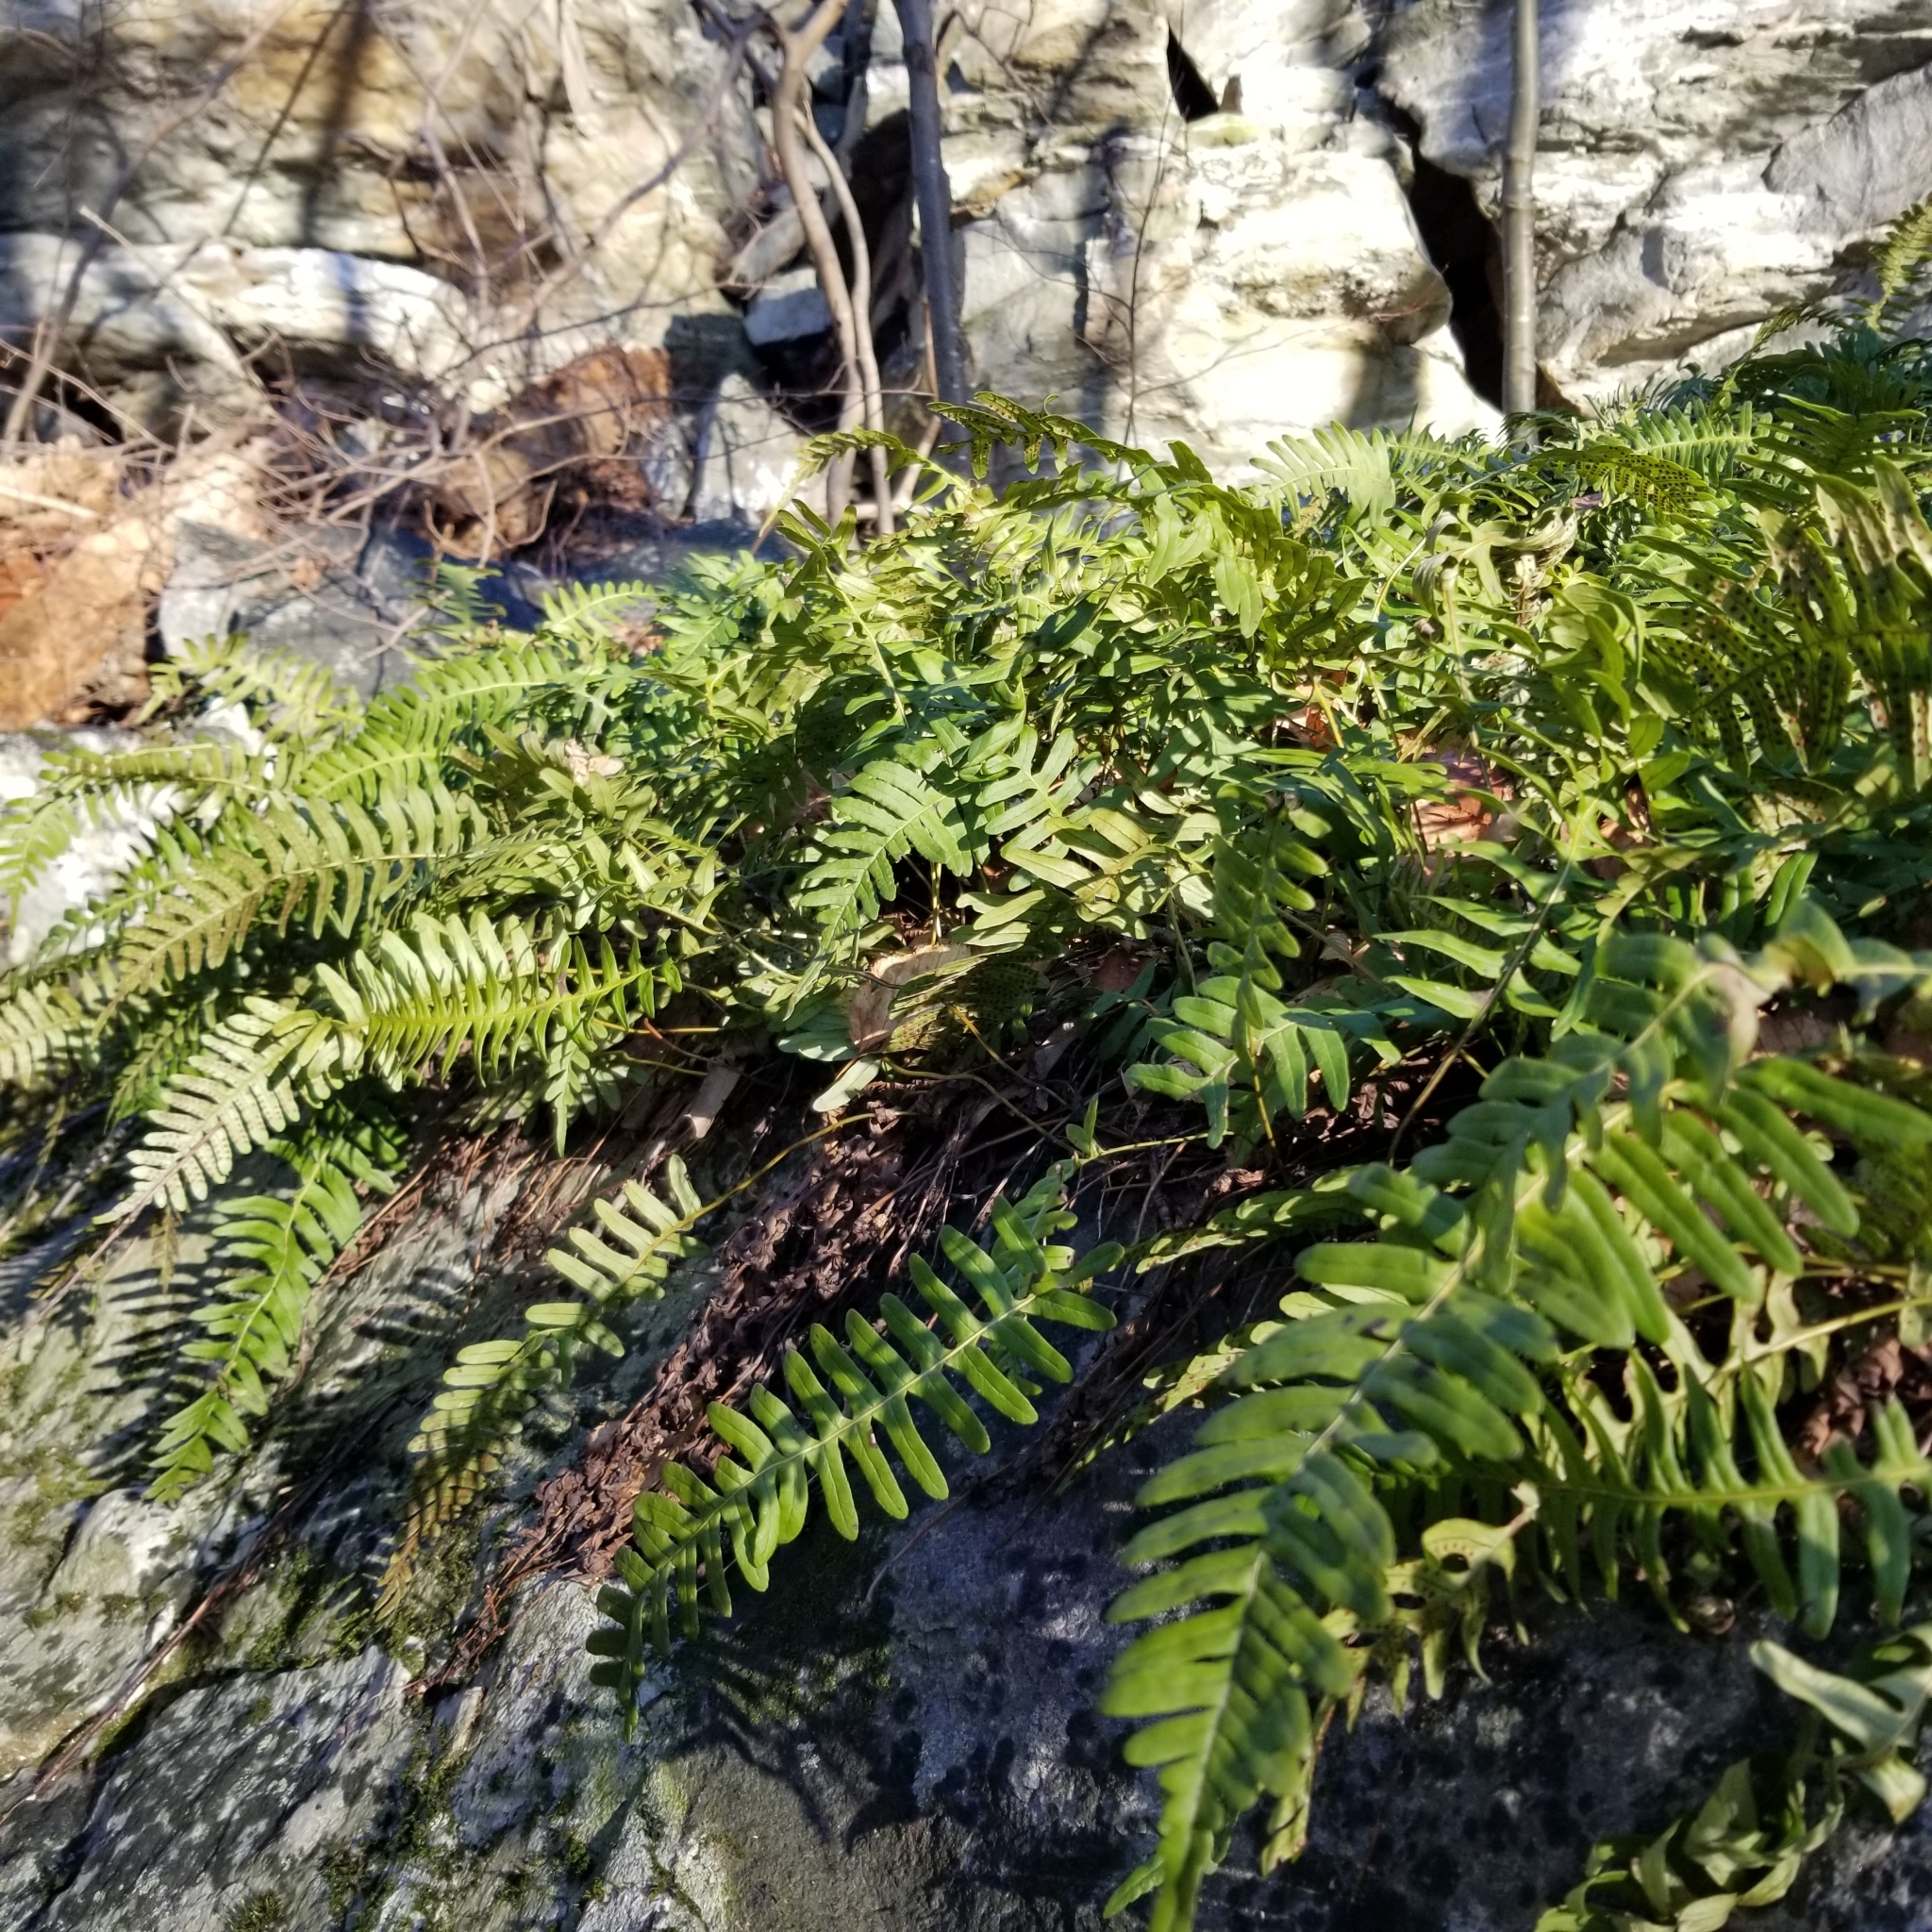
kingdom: Plantae
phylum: Tracheophyta
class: Polypodiopsida
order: Polypodiales
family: Polypodiaceae
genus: Polypodium
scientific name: Polypodium virginianum
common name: American wall fern
